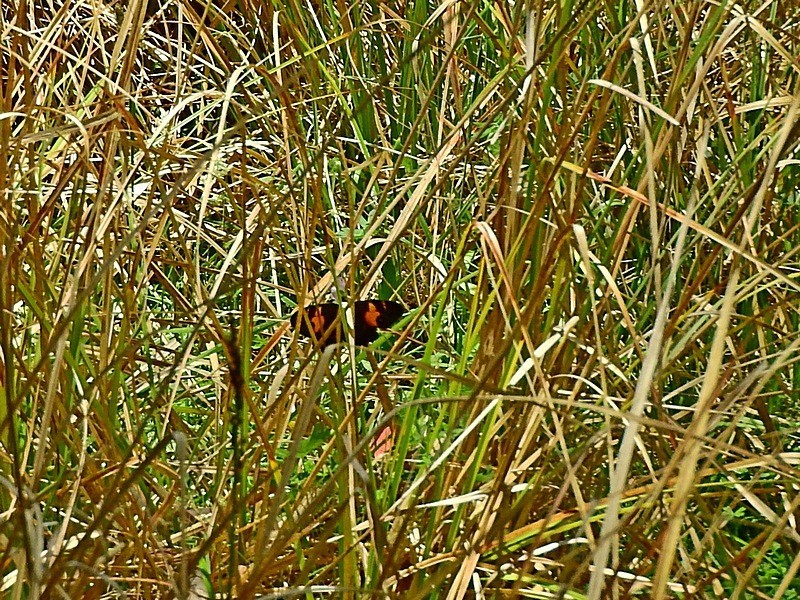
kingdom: Animalia
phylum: Arthropoda
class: Insecta
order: Lepidoptera
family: Nymphalidae
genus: Tisiphone
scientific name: Tisiphone abeona
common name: Swordgrass brown
